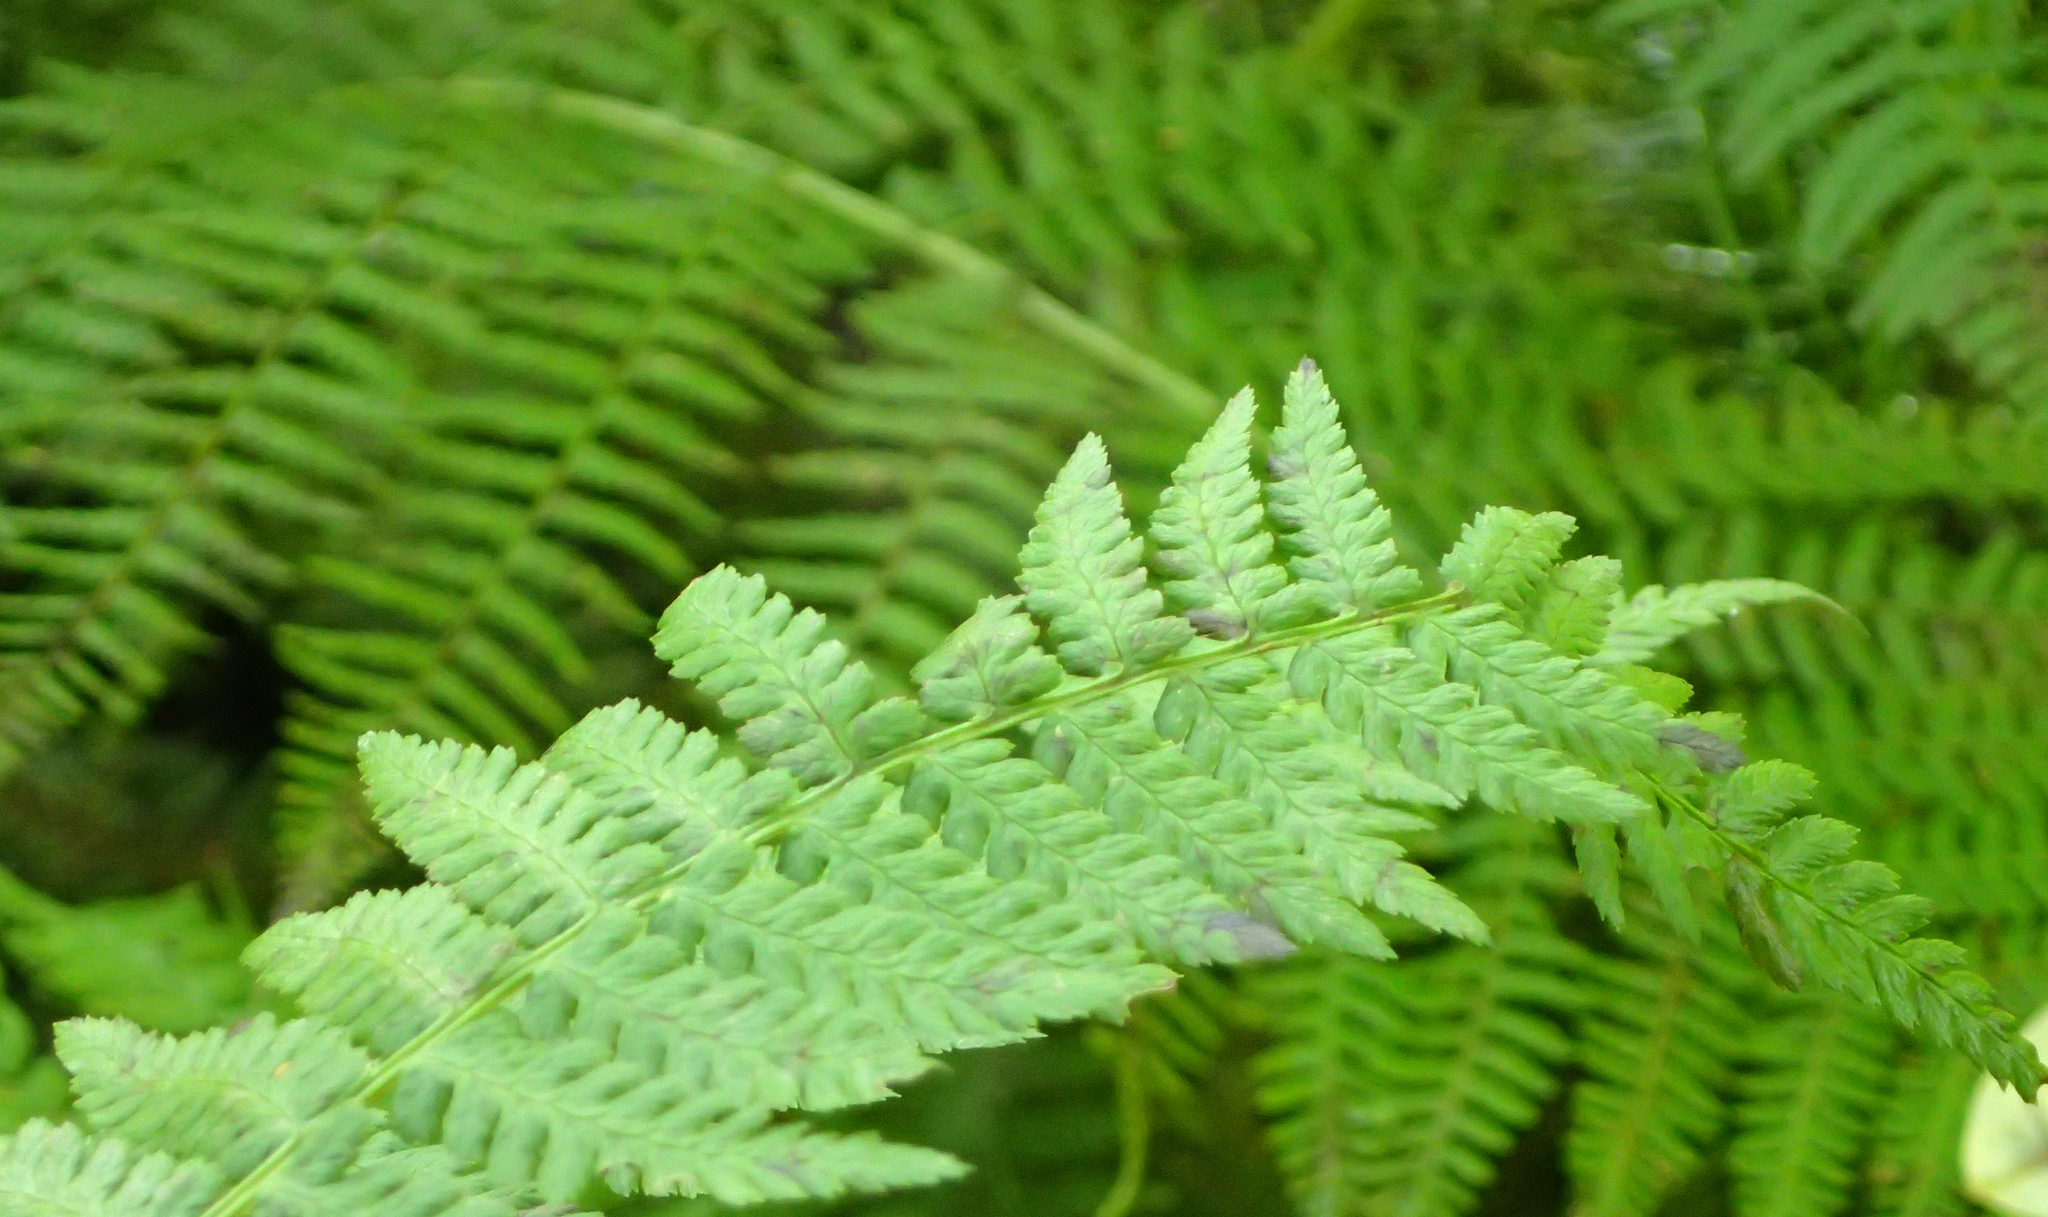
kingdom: Plantae
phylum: Tracheophyta
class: Polypodiopsida
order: Polypodiales
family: Athyriaceae
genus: Athyrium
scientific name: Athyrium filix-femina
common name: Lady fern
